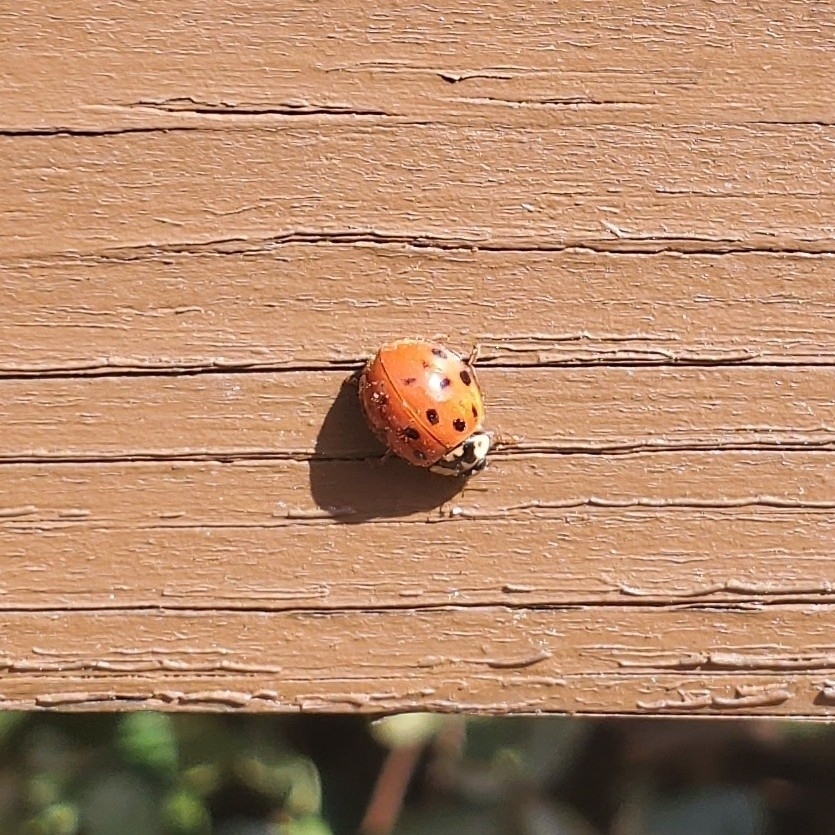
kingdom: Animalia
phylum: Arthropoda
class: Insecta
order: Coleoptera
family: Coccinellidae
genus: Harmonia
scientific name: Harmonia axyridis
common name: Harlequin ladybird
